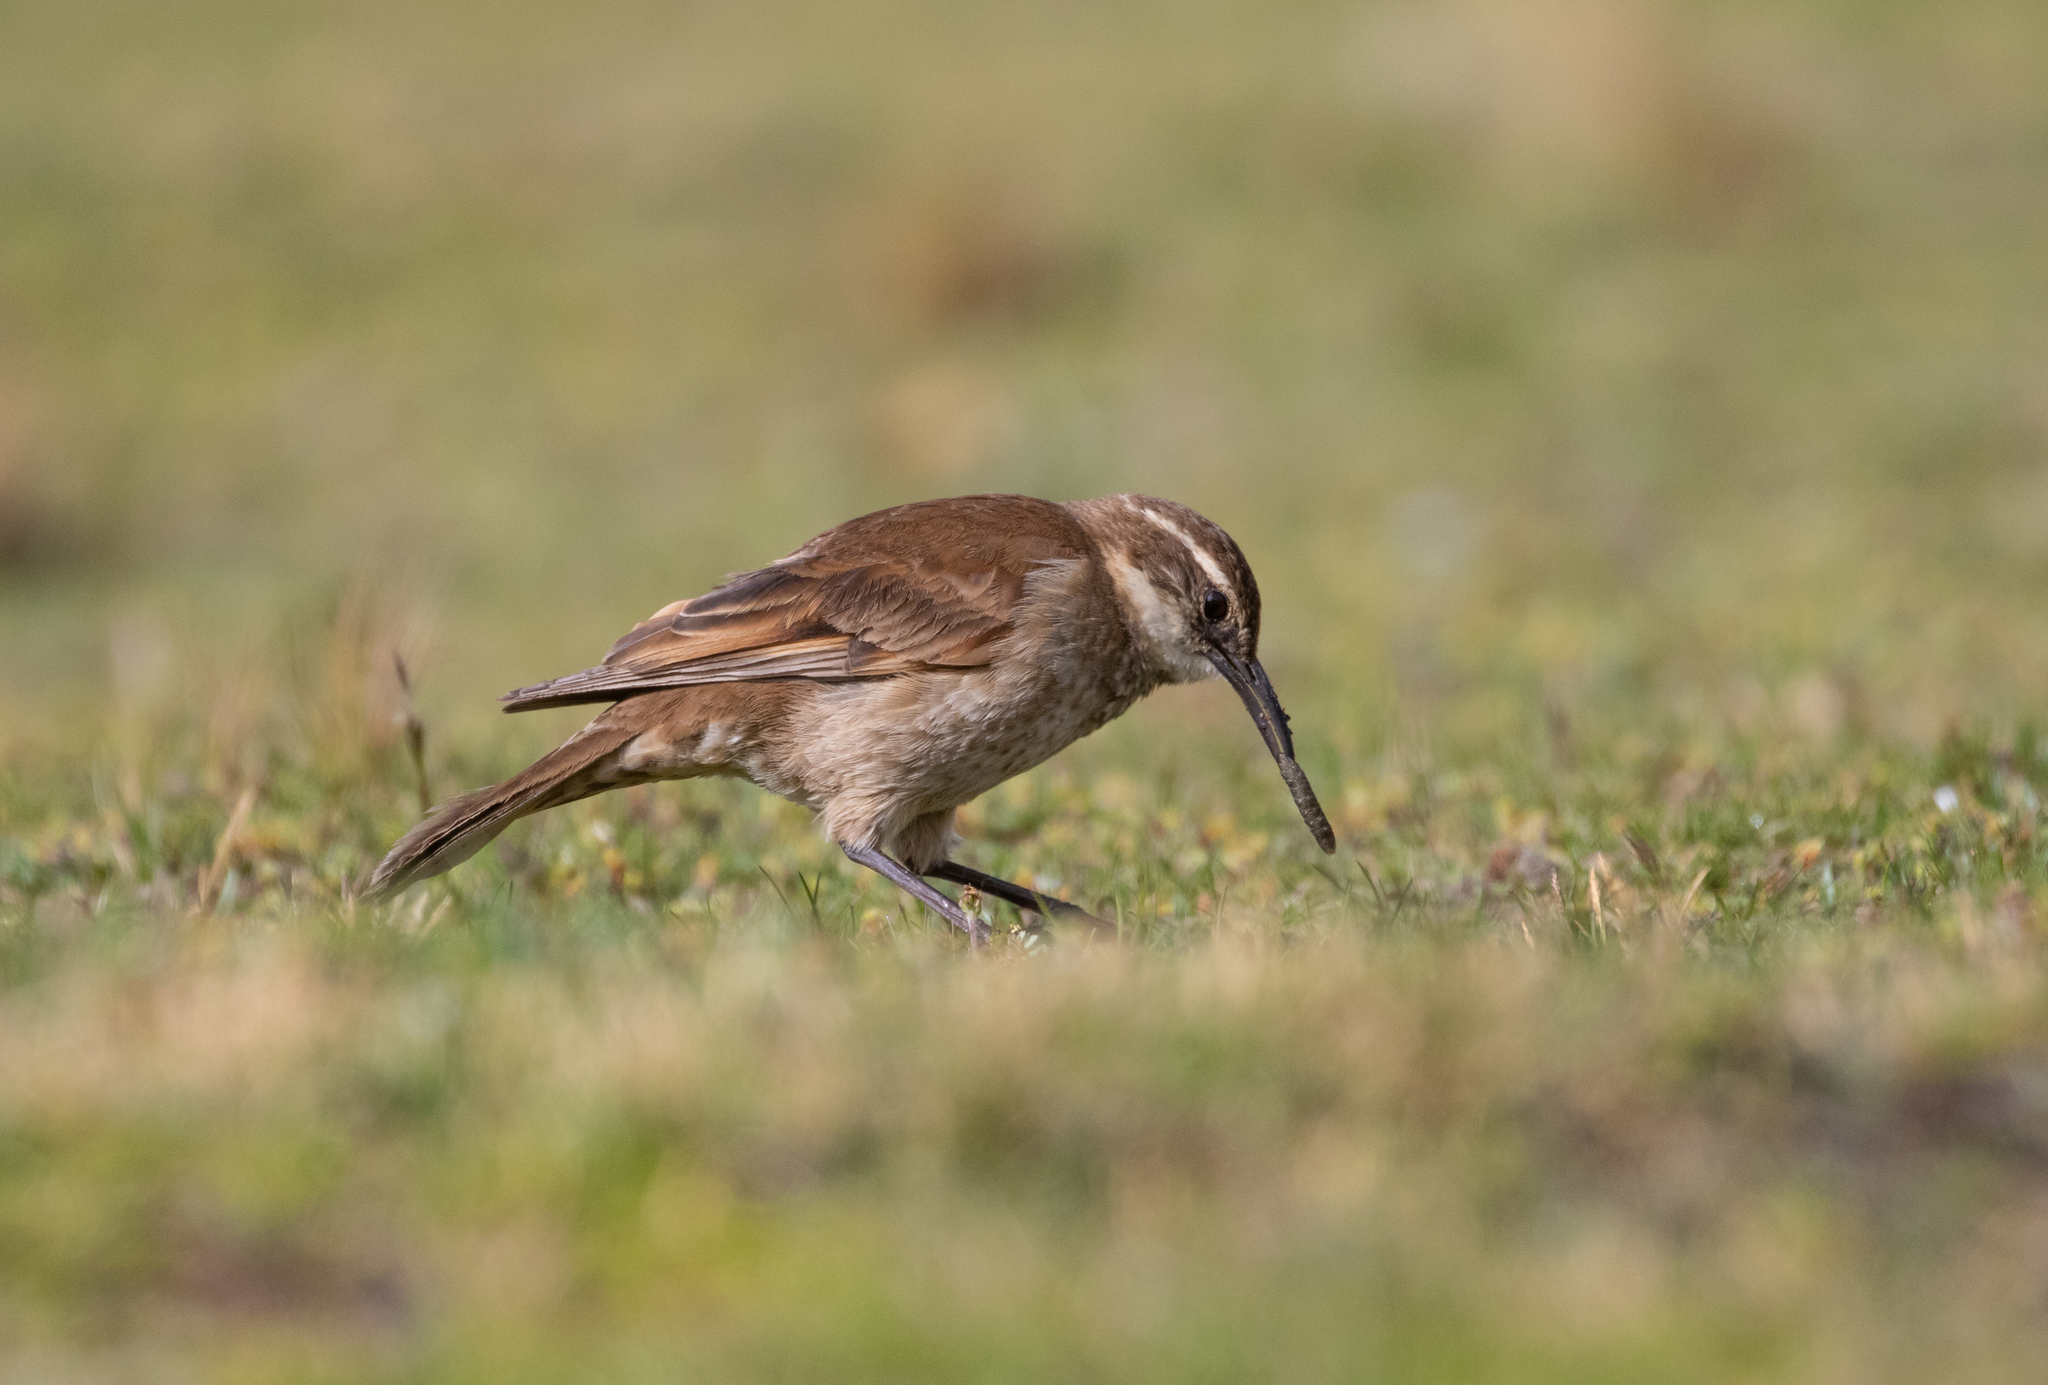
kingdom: Animalia
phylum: Chordata
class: Aves
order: Passeriformes
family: Furnariidae
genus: Cinclodes
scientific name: Cinclodes excelsior
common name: Stout-billed cinclodes
